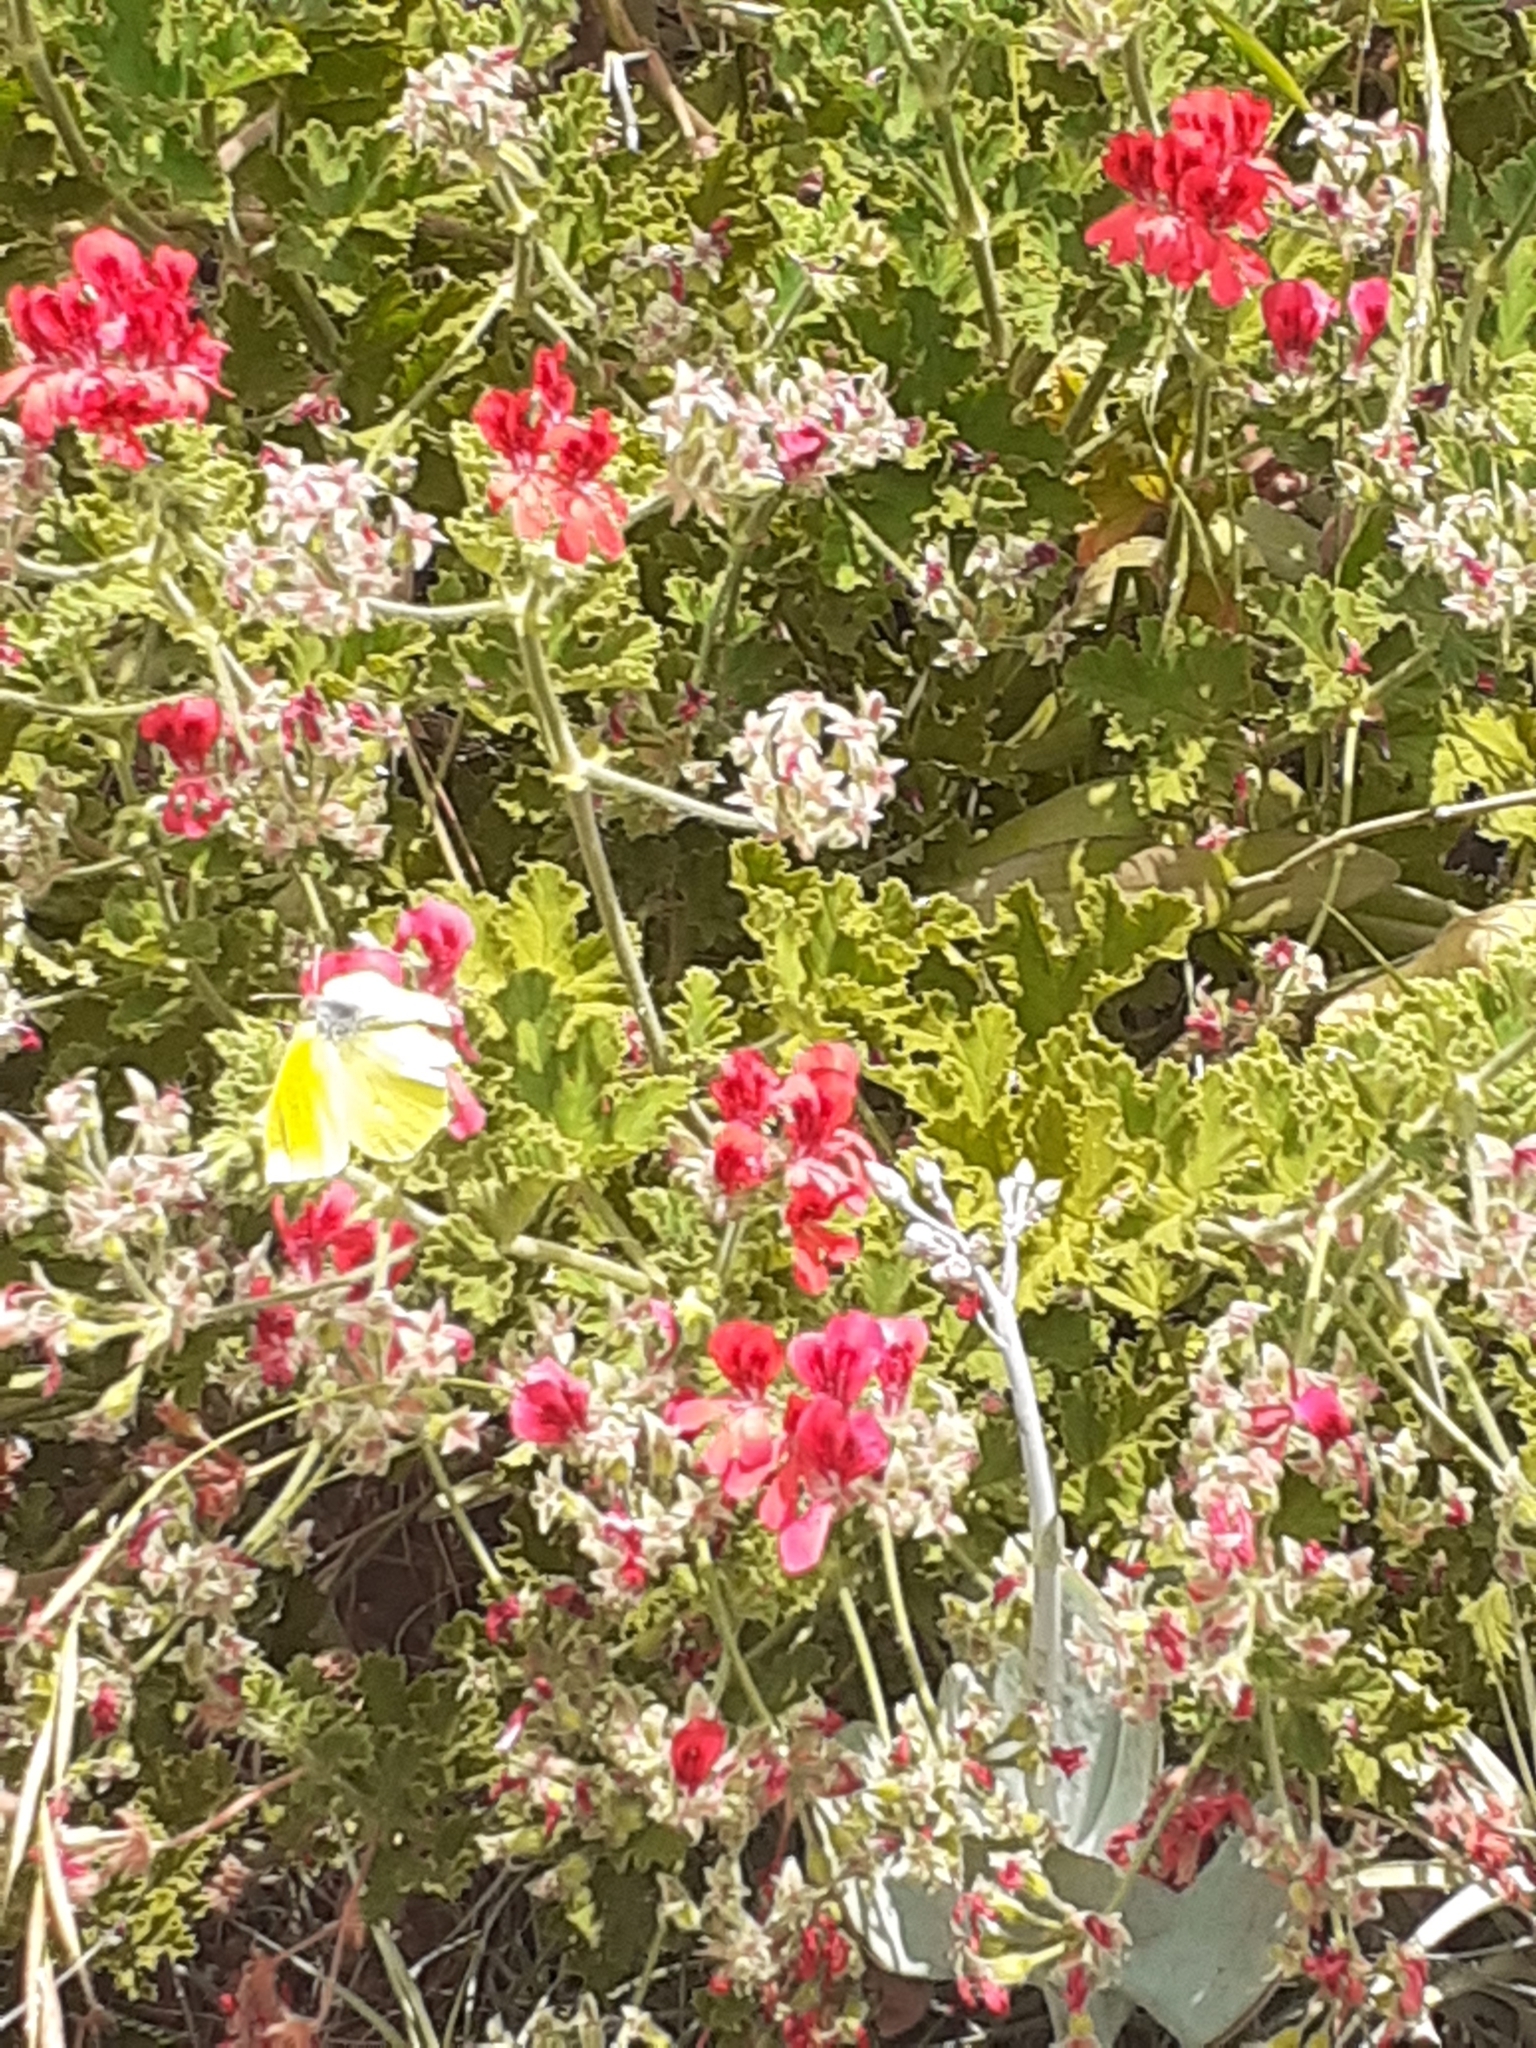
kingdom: Animalia
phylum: Arthropoda
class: Insecta
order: Lepidoptera
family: Pieridae
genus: Gonepteryx
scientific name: Gonepteryx cleobule
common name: Canary brimstone
